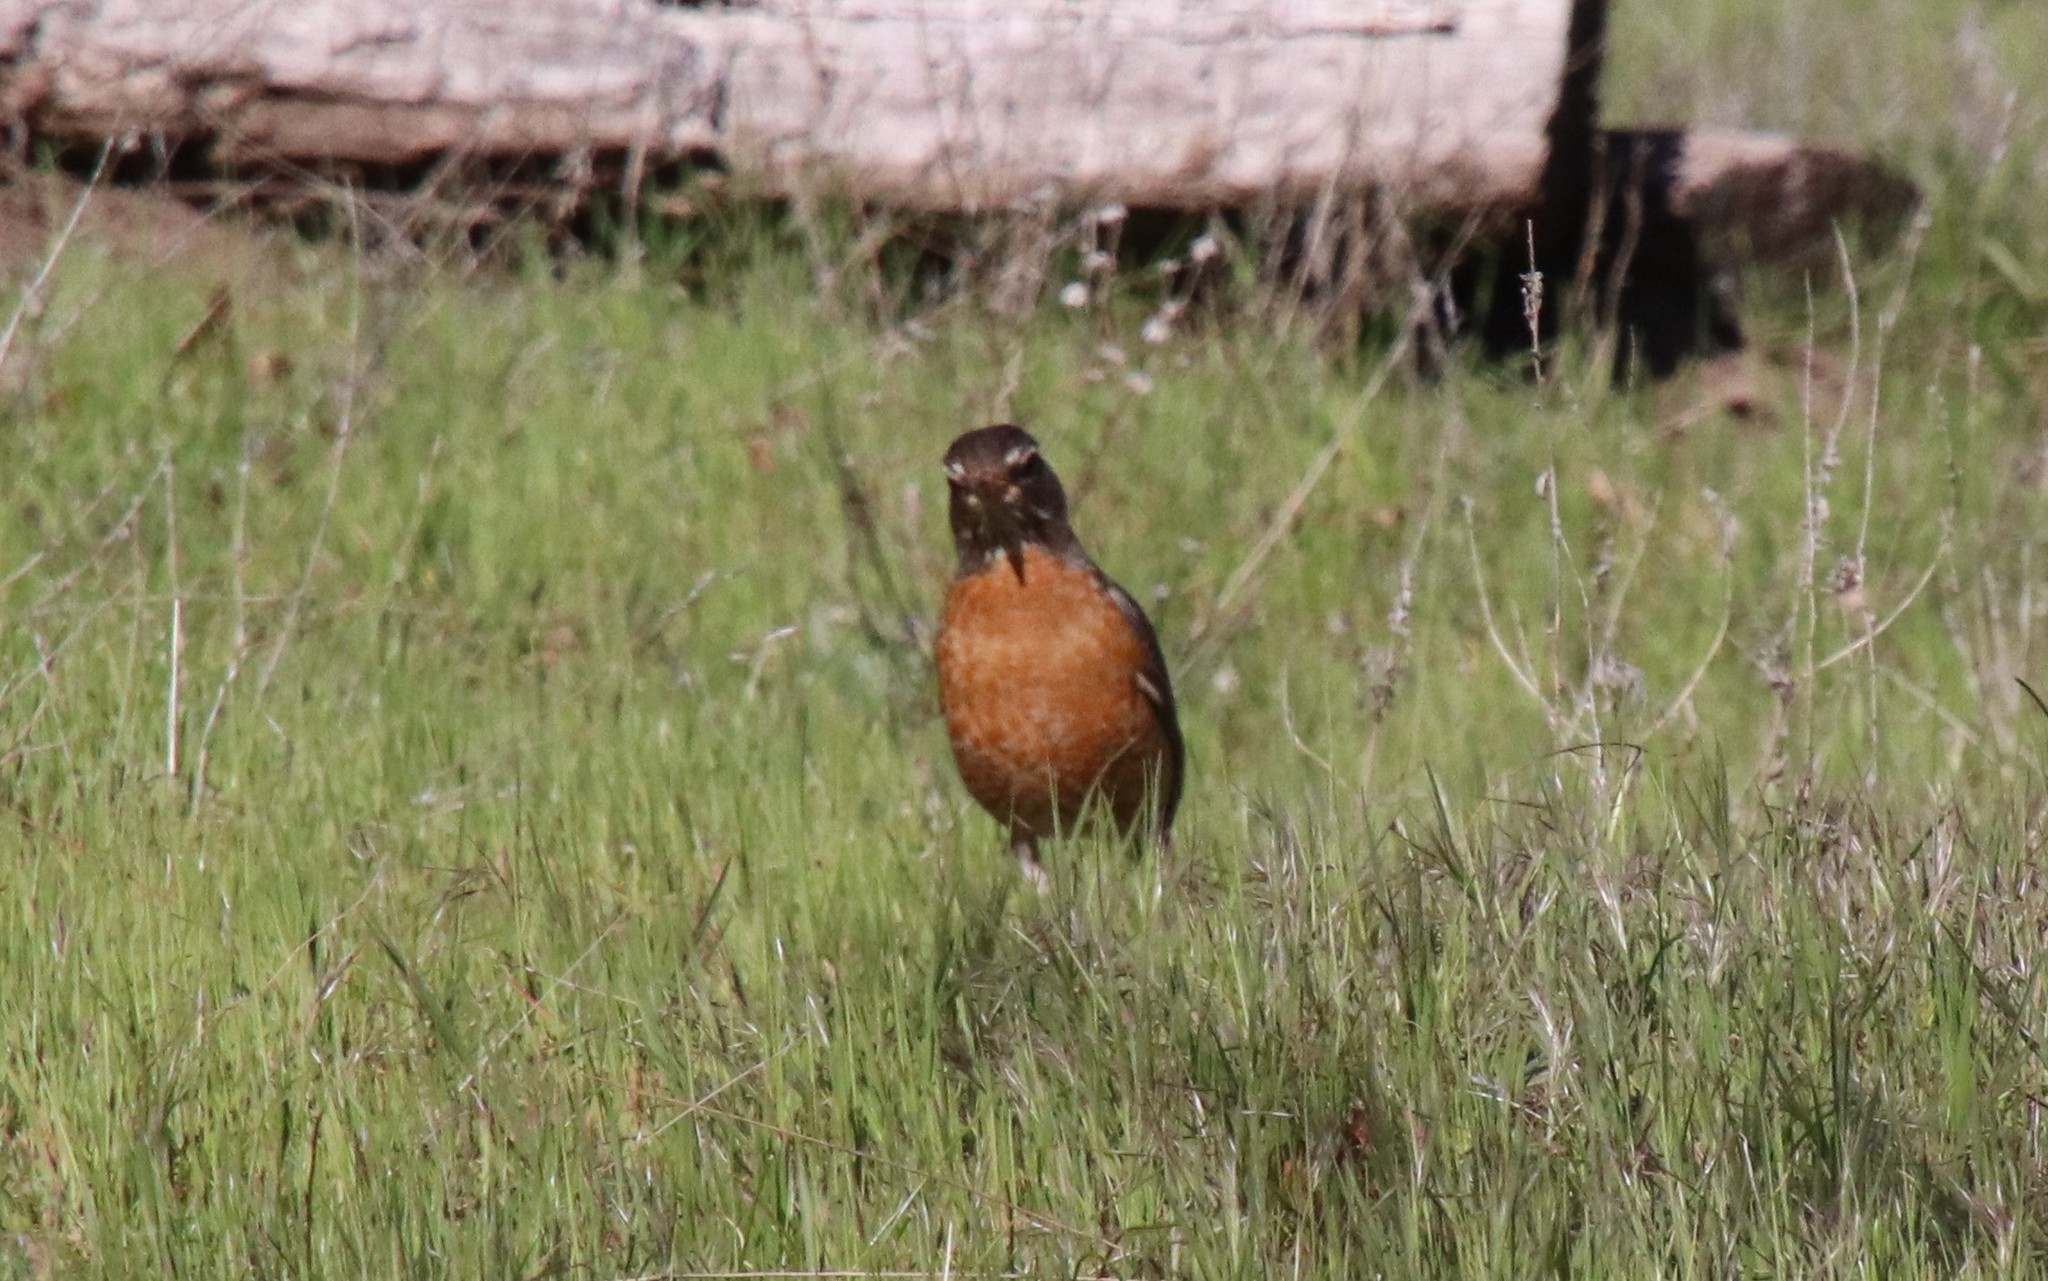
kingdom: Animalia
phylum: Chordata
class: Aves
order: Passeriformes
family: Turdidae
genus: Turdus
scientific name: Turdus migratorius
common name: American robin
